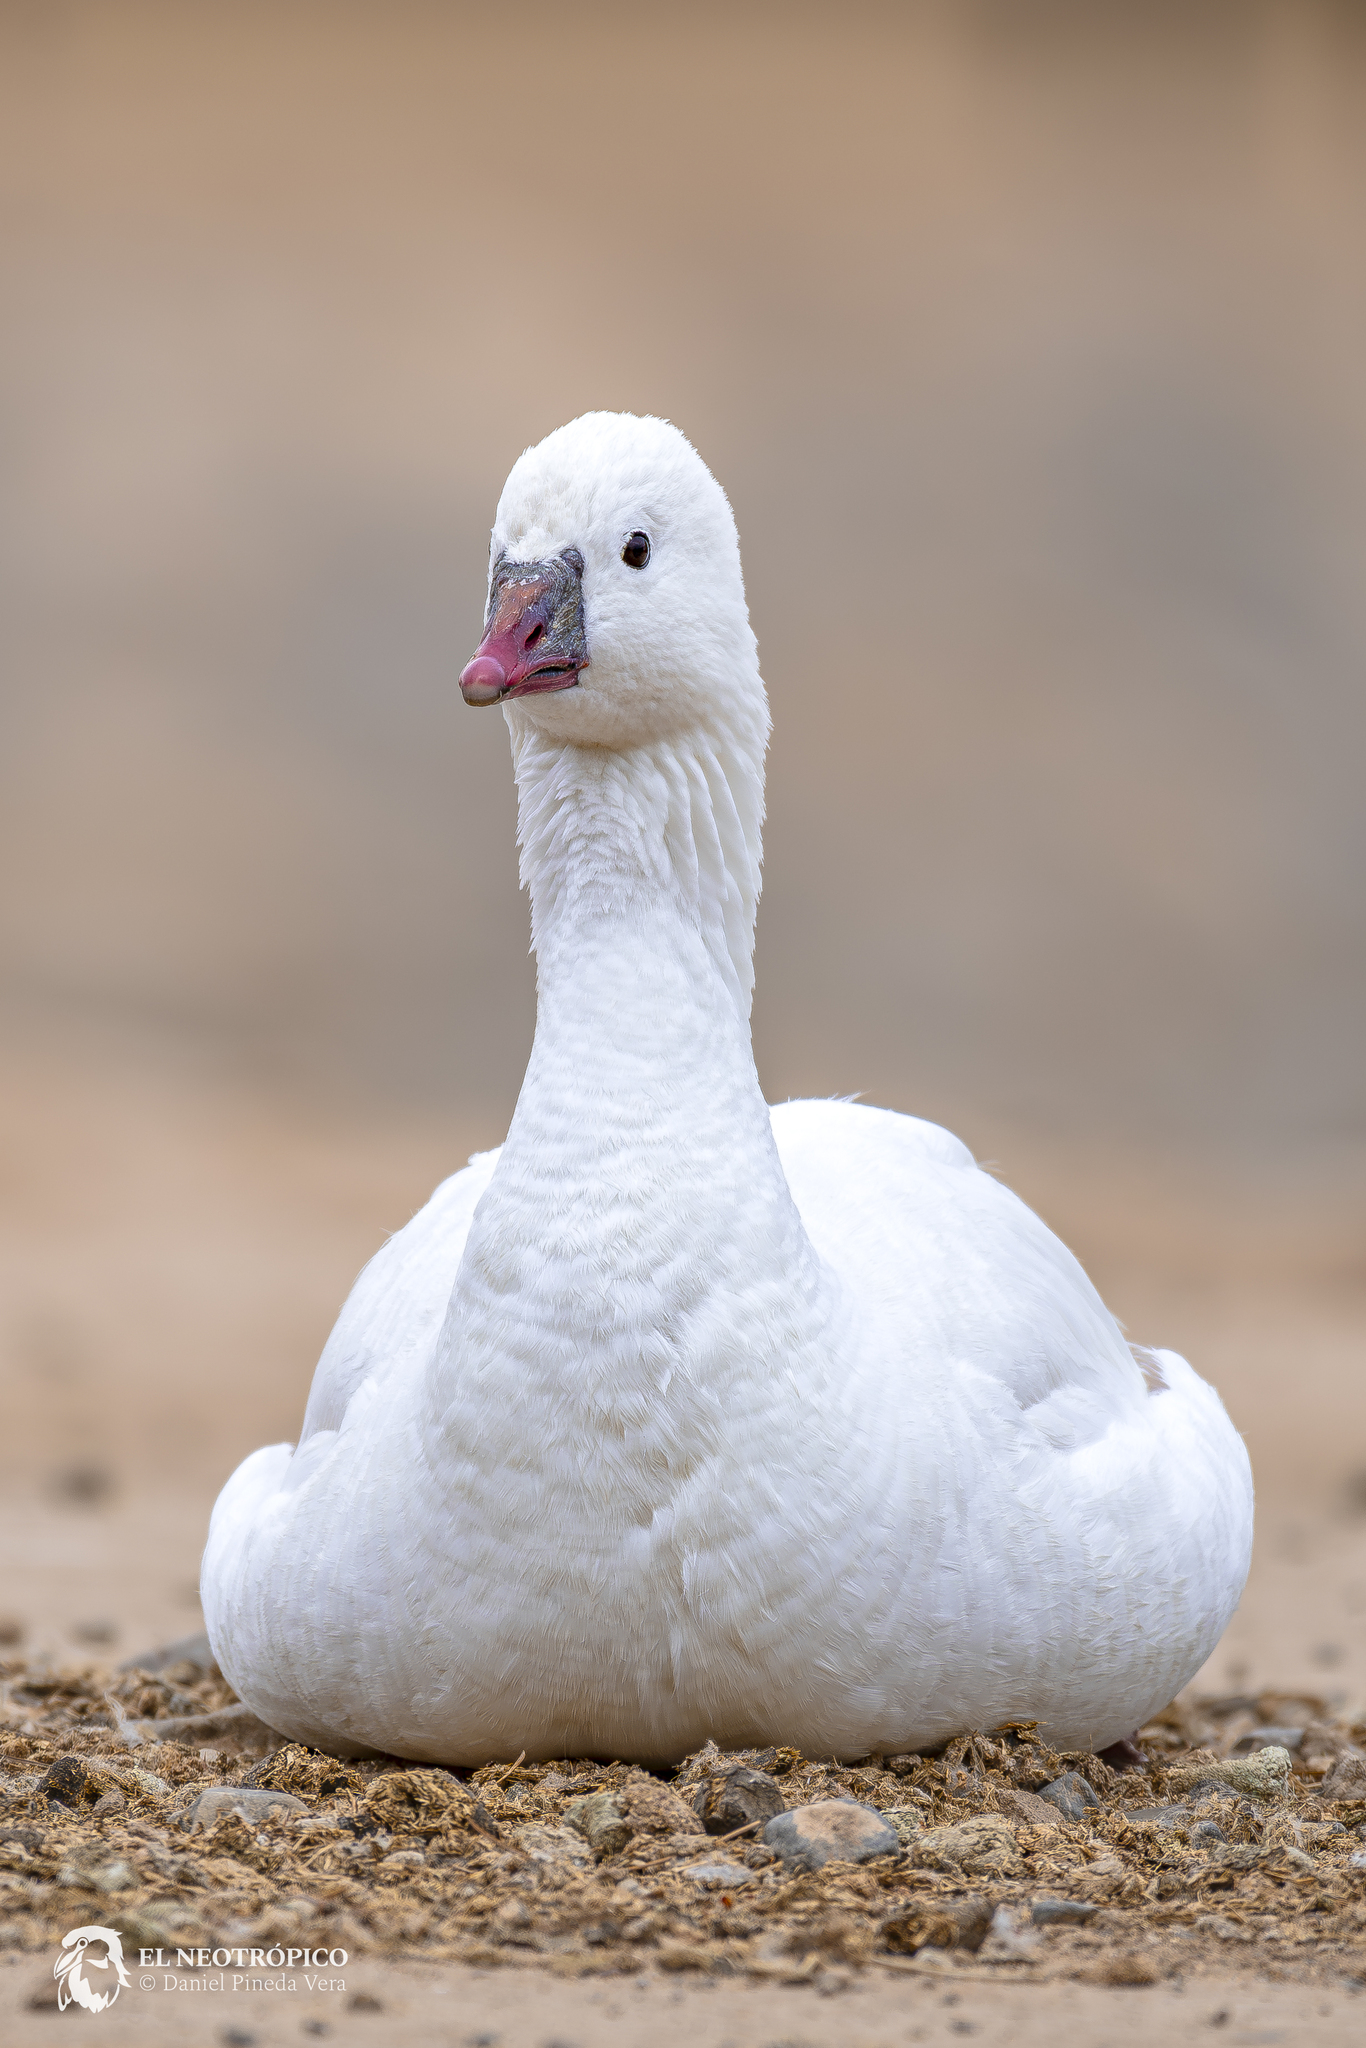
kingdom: Animalia
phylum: Chordata
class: Aves
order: Anseriformes
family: Anatidae
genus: Anser
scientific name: Anser rossii
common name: Ross's goose
